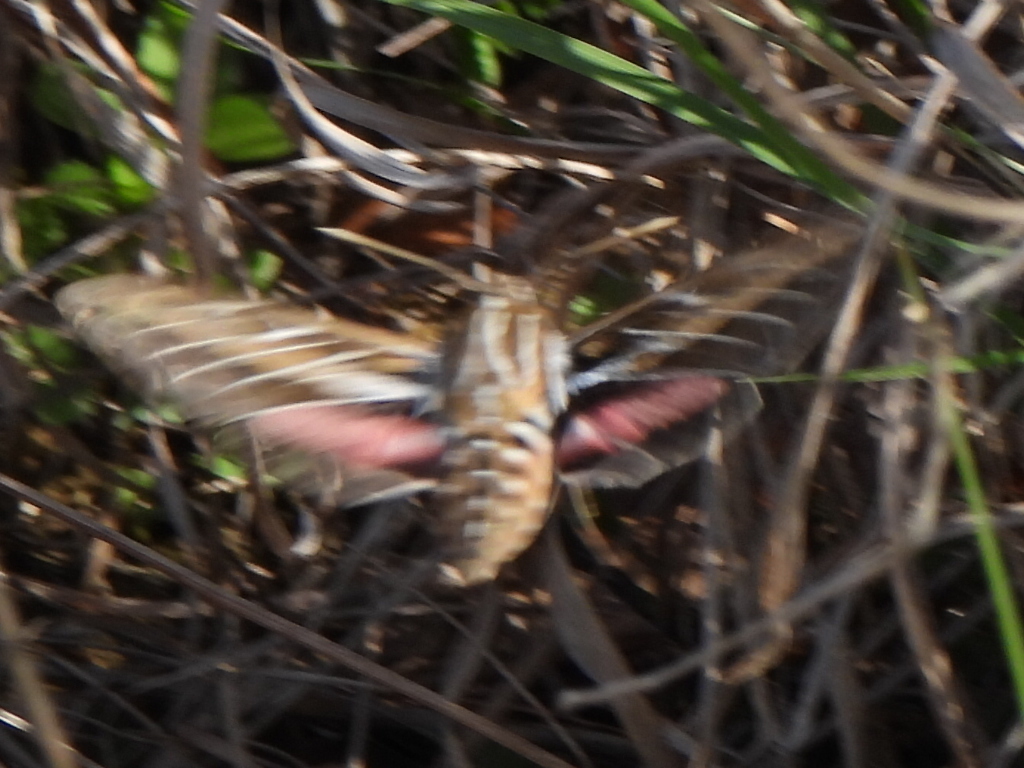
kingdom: Animalia
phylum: Arthropoda
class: Insecta
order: Lepidoptera
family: Sphingidae
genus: Hyles
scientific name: Hyles lineata
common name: White-lined sphinx
